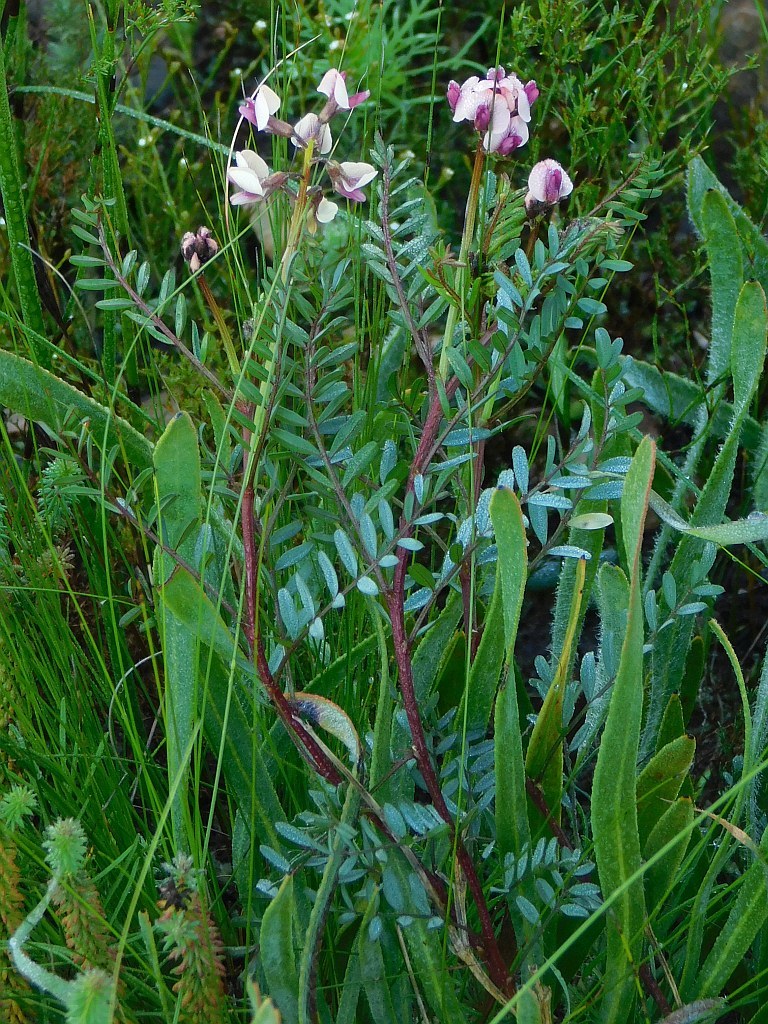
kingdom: Plantae
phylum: Tracheophyta
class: Magnoliopsida
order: Fabales
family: Fabaceae
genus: Lessertia
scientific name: Lessertia pauciflora
